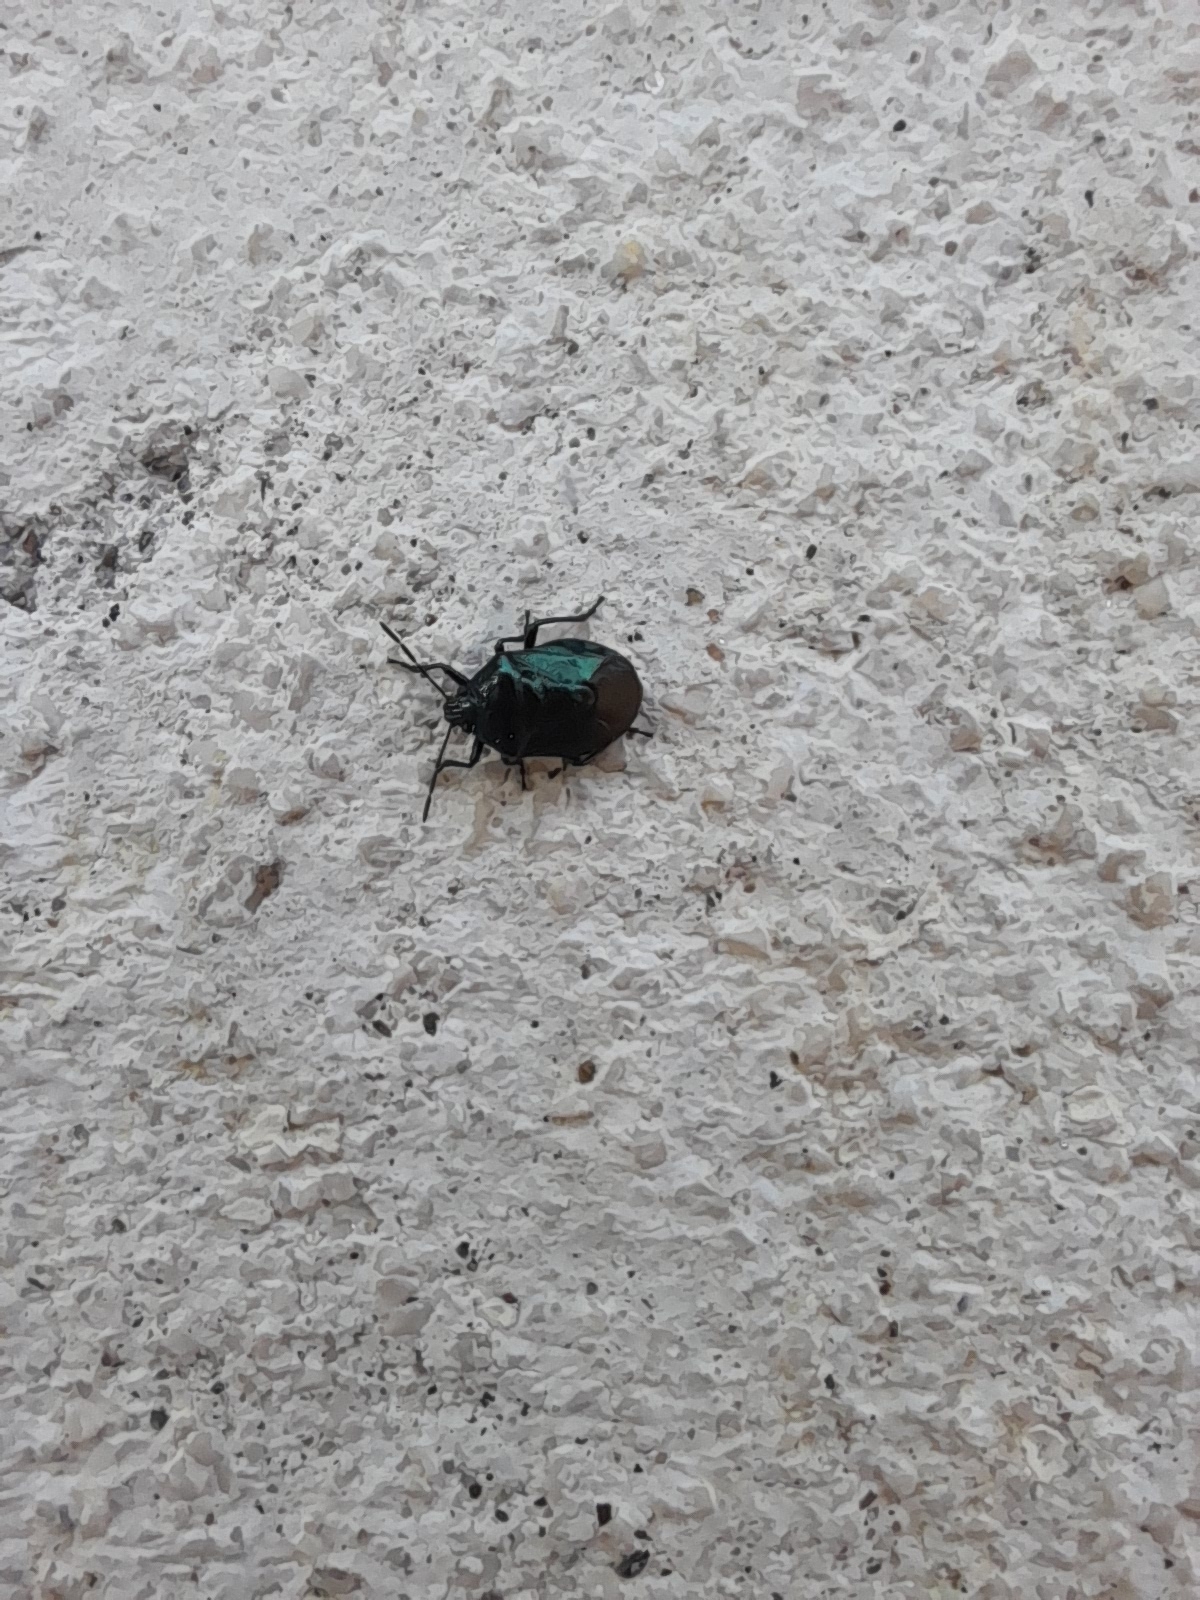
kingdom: Animalia
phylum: Arthropoda
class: Insecta
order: Hemiptera
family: Pentatomidae
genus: Zicrona
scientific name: Zicrona caerulea
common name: Blue shieldbug
